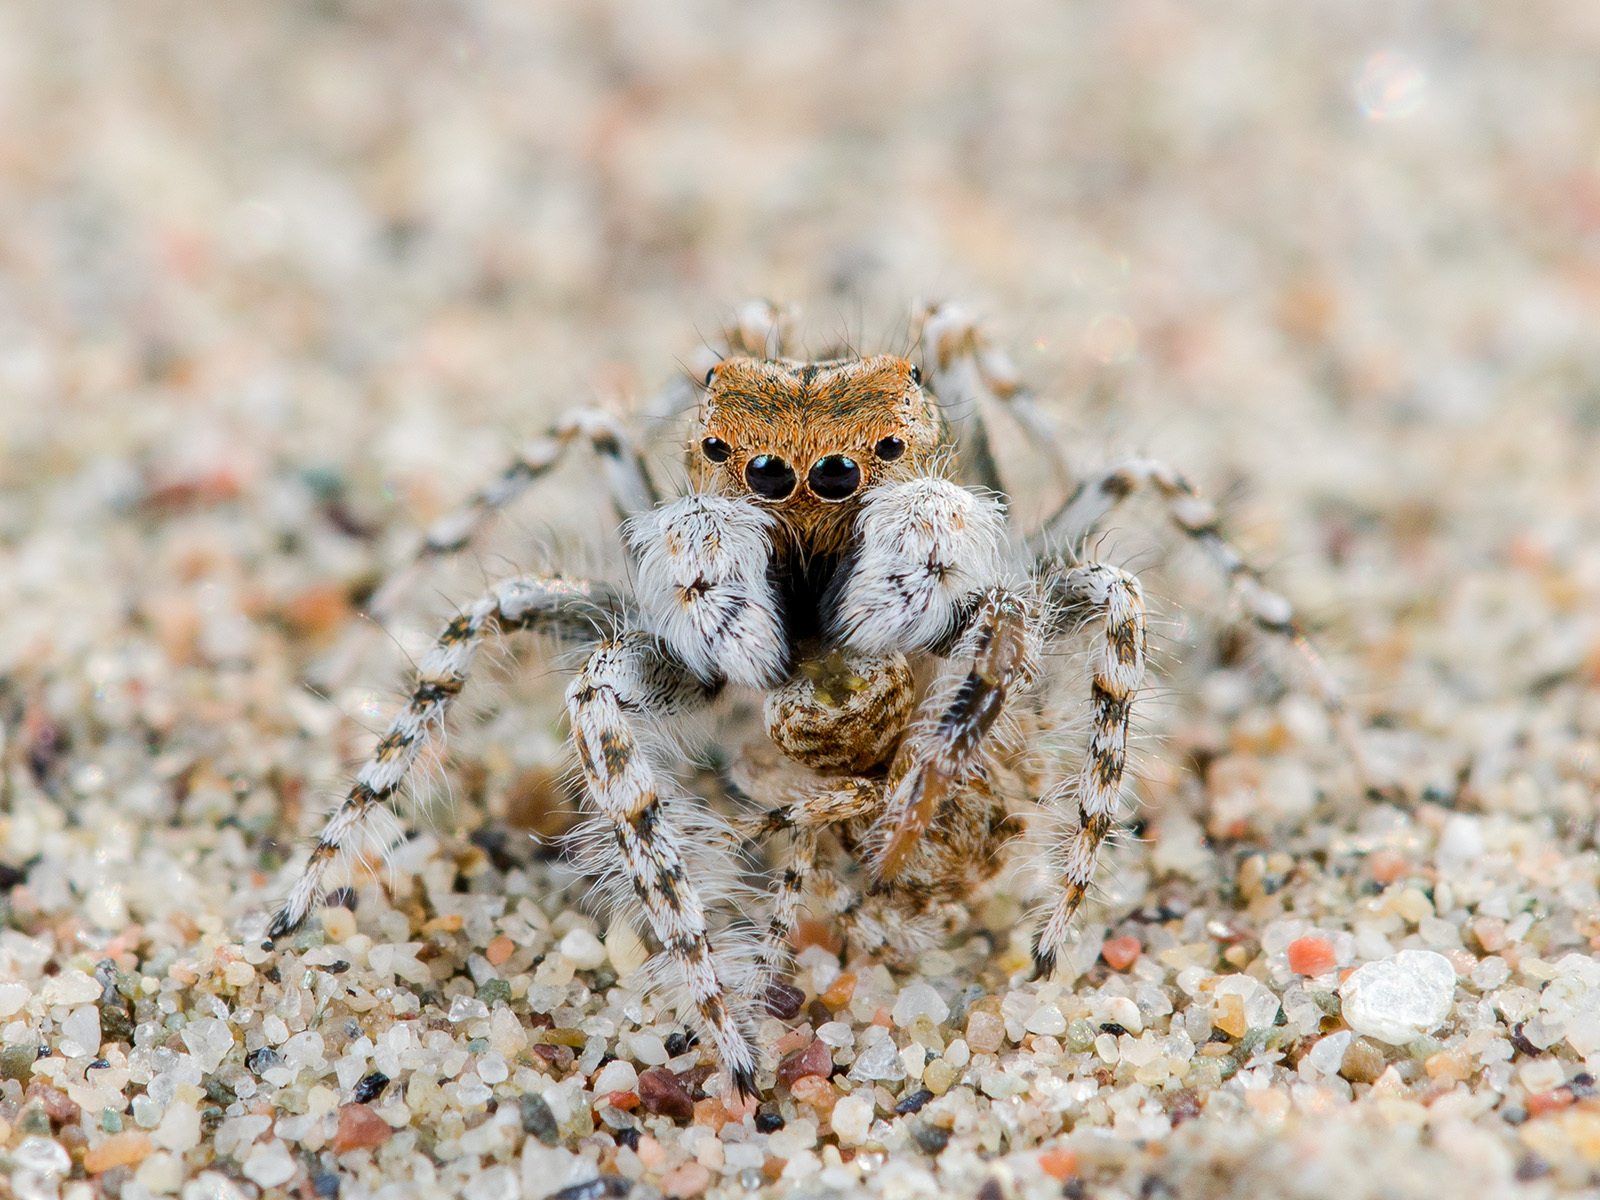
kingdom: Animalia
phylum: Arthropoda
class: Arachnida
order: Araneae
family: Salticidae
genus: Yllenus
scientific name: Yllenus uiguricus
